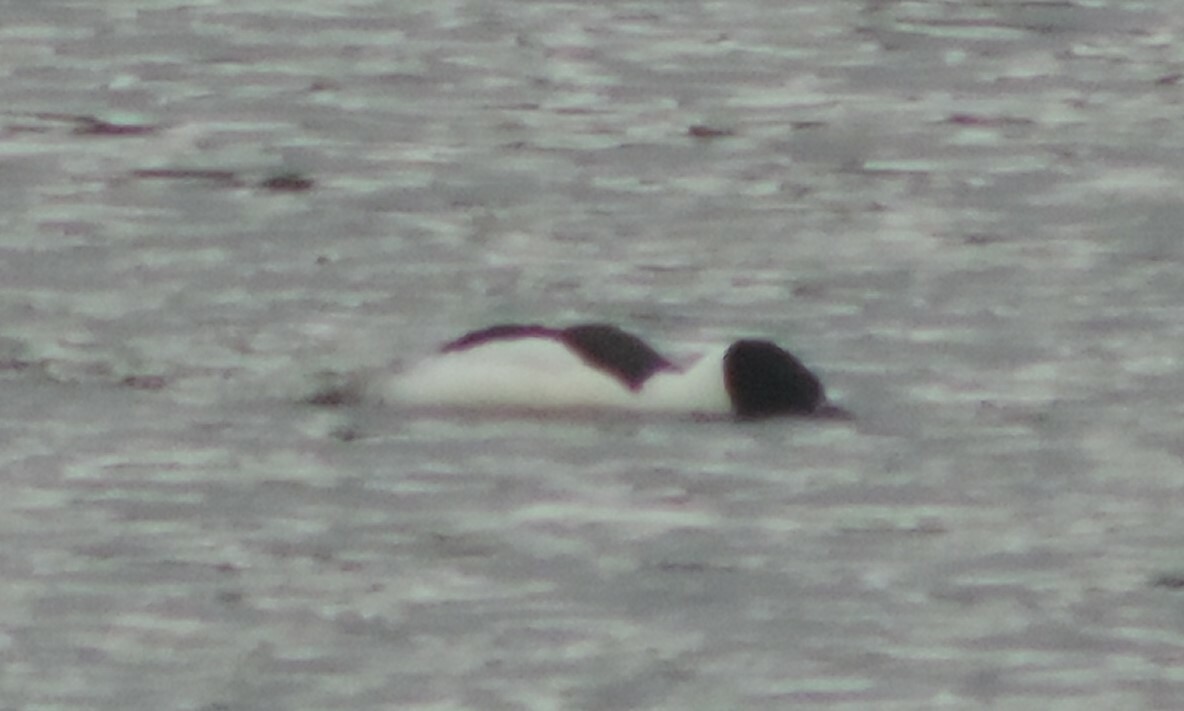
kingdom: Animalia
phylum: Chordata
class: Aves
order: Anseriformes
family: Anatidae
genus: Mergus
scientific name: Mergus merganser
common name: Common merganser
